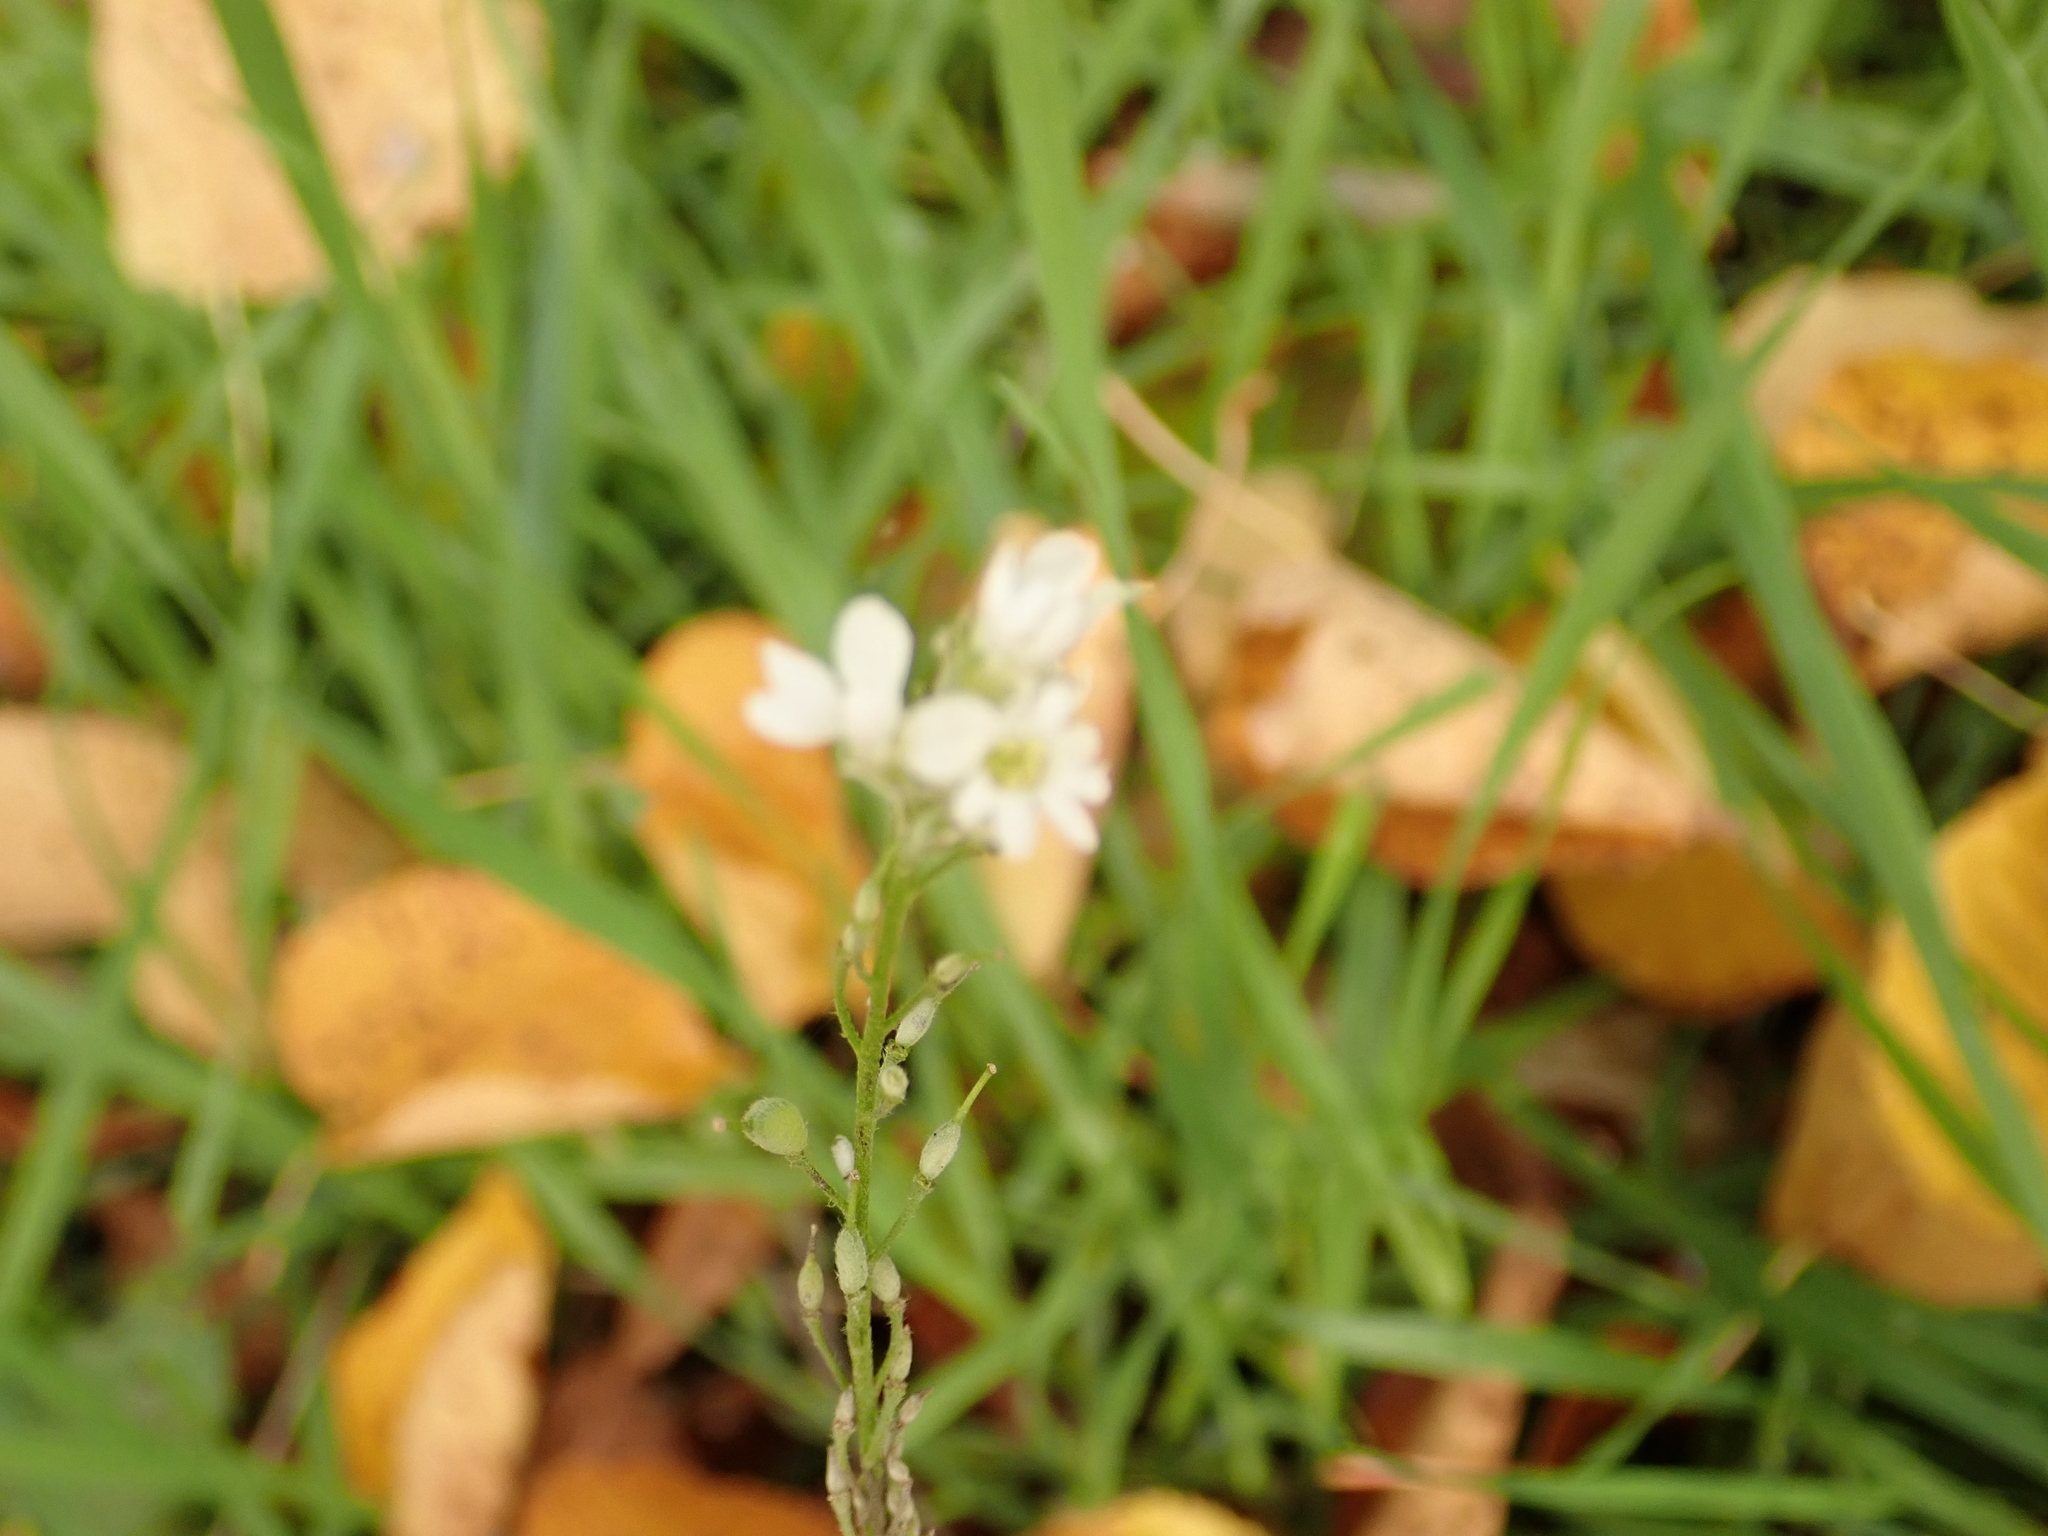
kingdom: Plantae
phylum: Tracheophyta
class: Magnoliopsida
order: Brassicales
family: Brassicaceae
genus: Berteroa
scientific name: Berteroa incana
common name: Hoary alison
